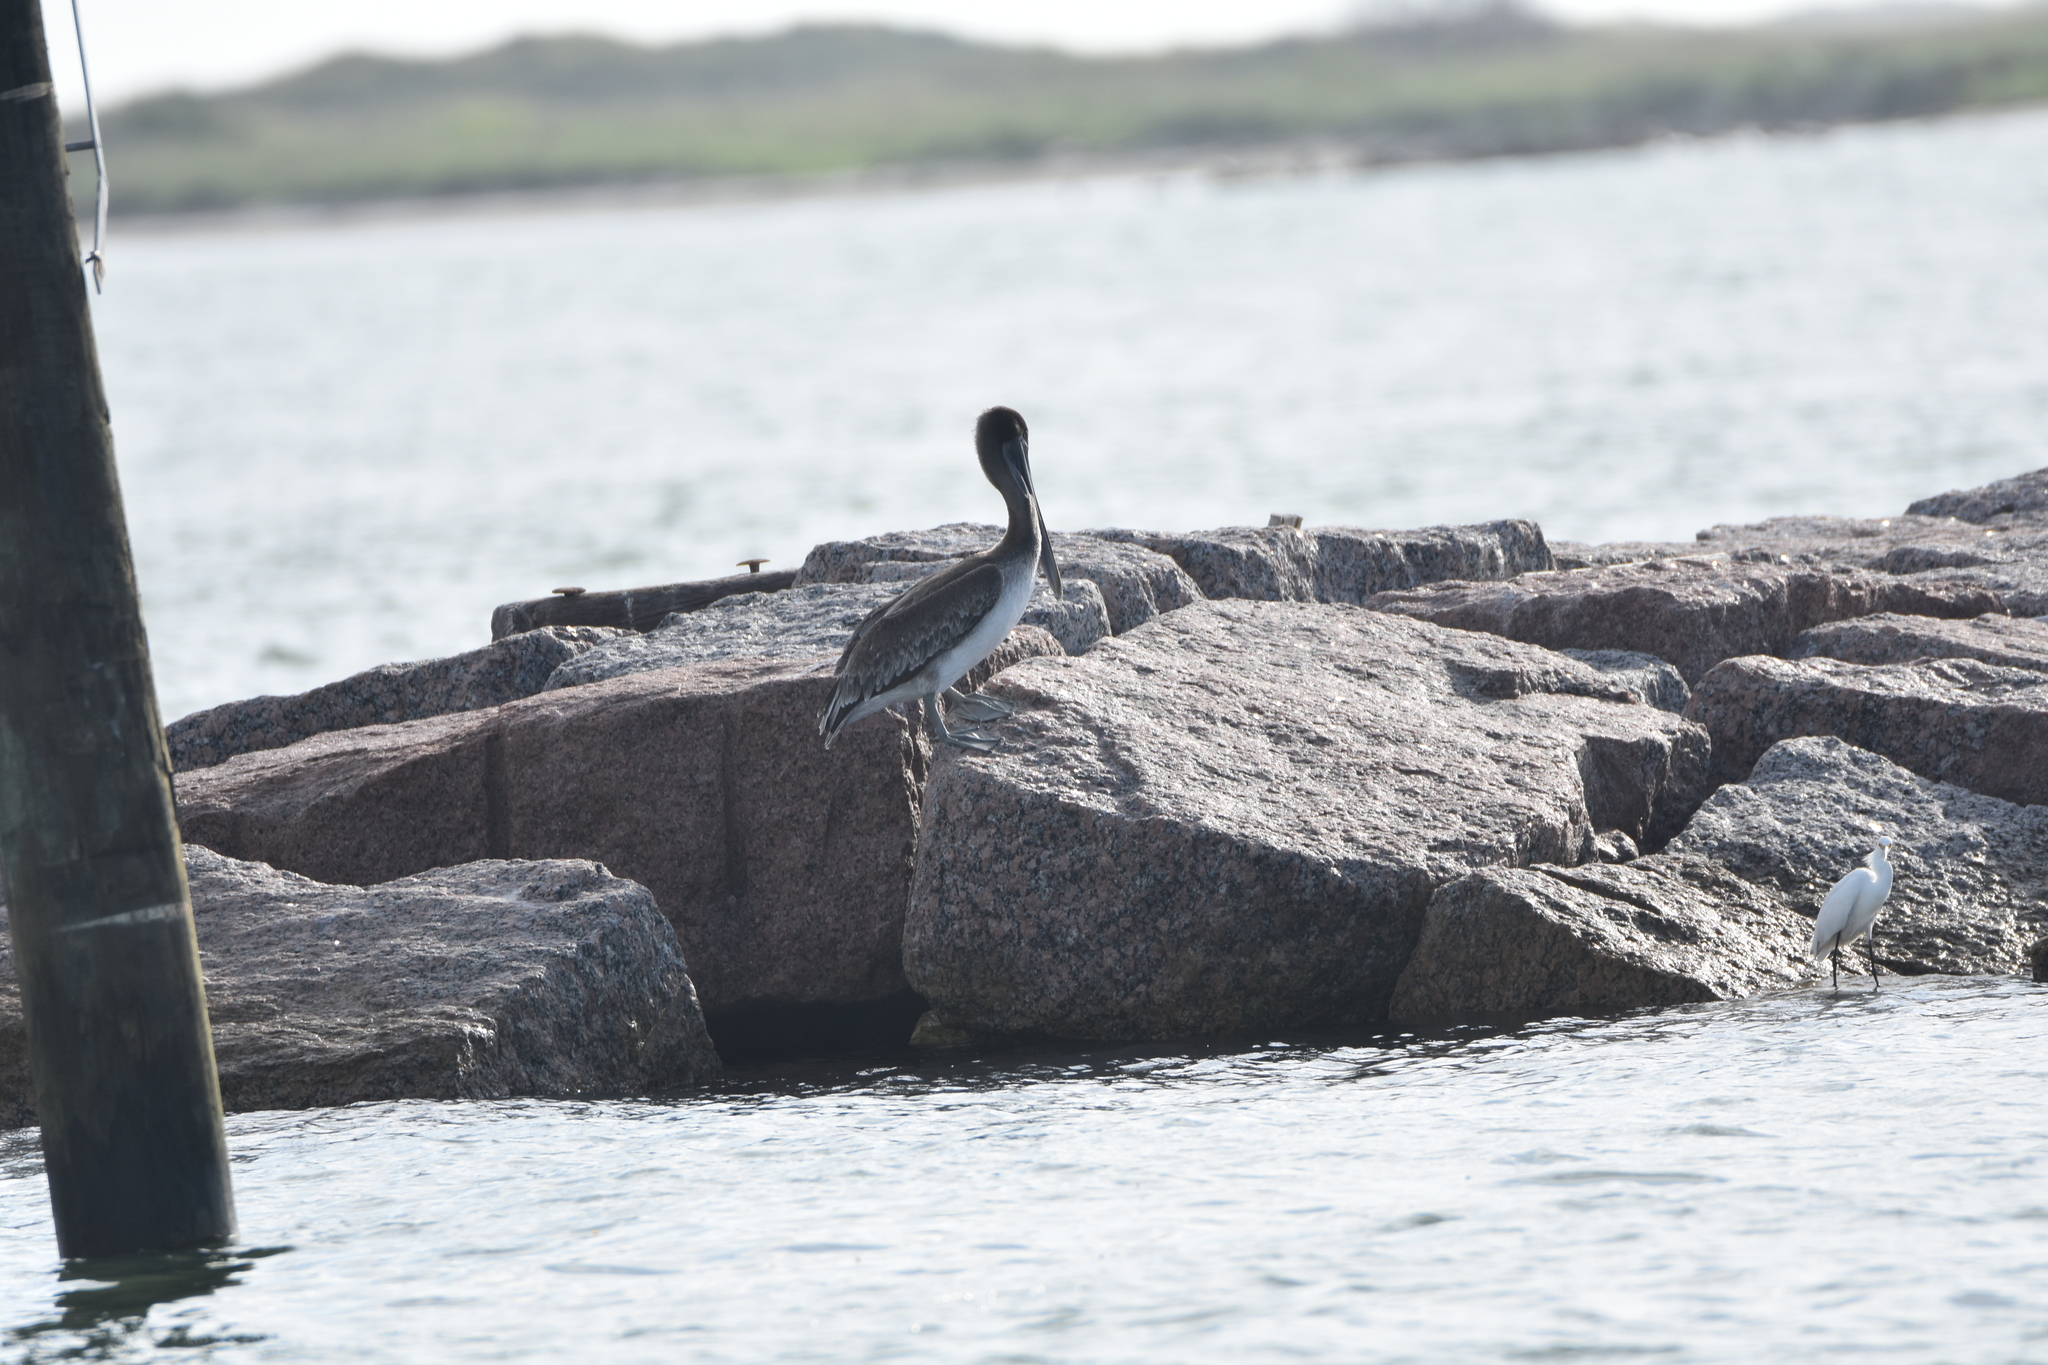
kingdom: Animalia
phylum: Chordata
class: Aves
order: Pelecaniformes
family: Pelecanidae
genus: Pelecanus
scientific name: Pelecanus occidentalis
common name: Brown pelican
